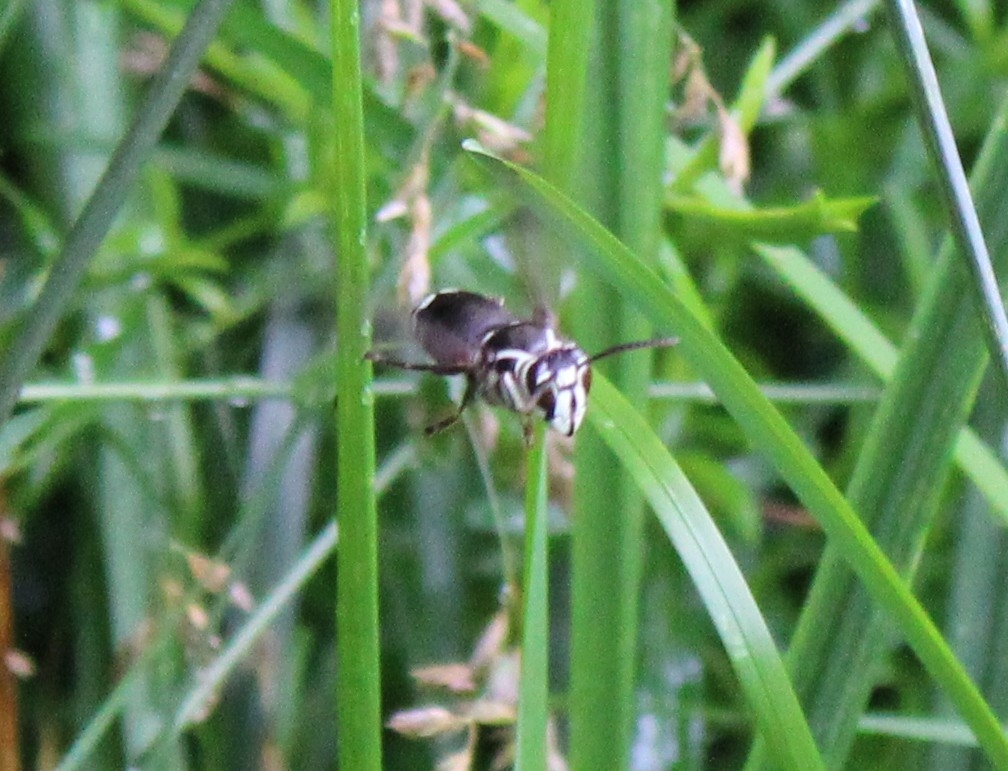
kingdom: Animalia
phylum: Arthropoda
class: Insecta
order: Hymenoptera
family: Vespidae
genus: Dolichovespula
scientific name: Dolichovespula maculata
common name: Bald-faced hornet
